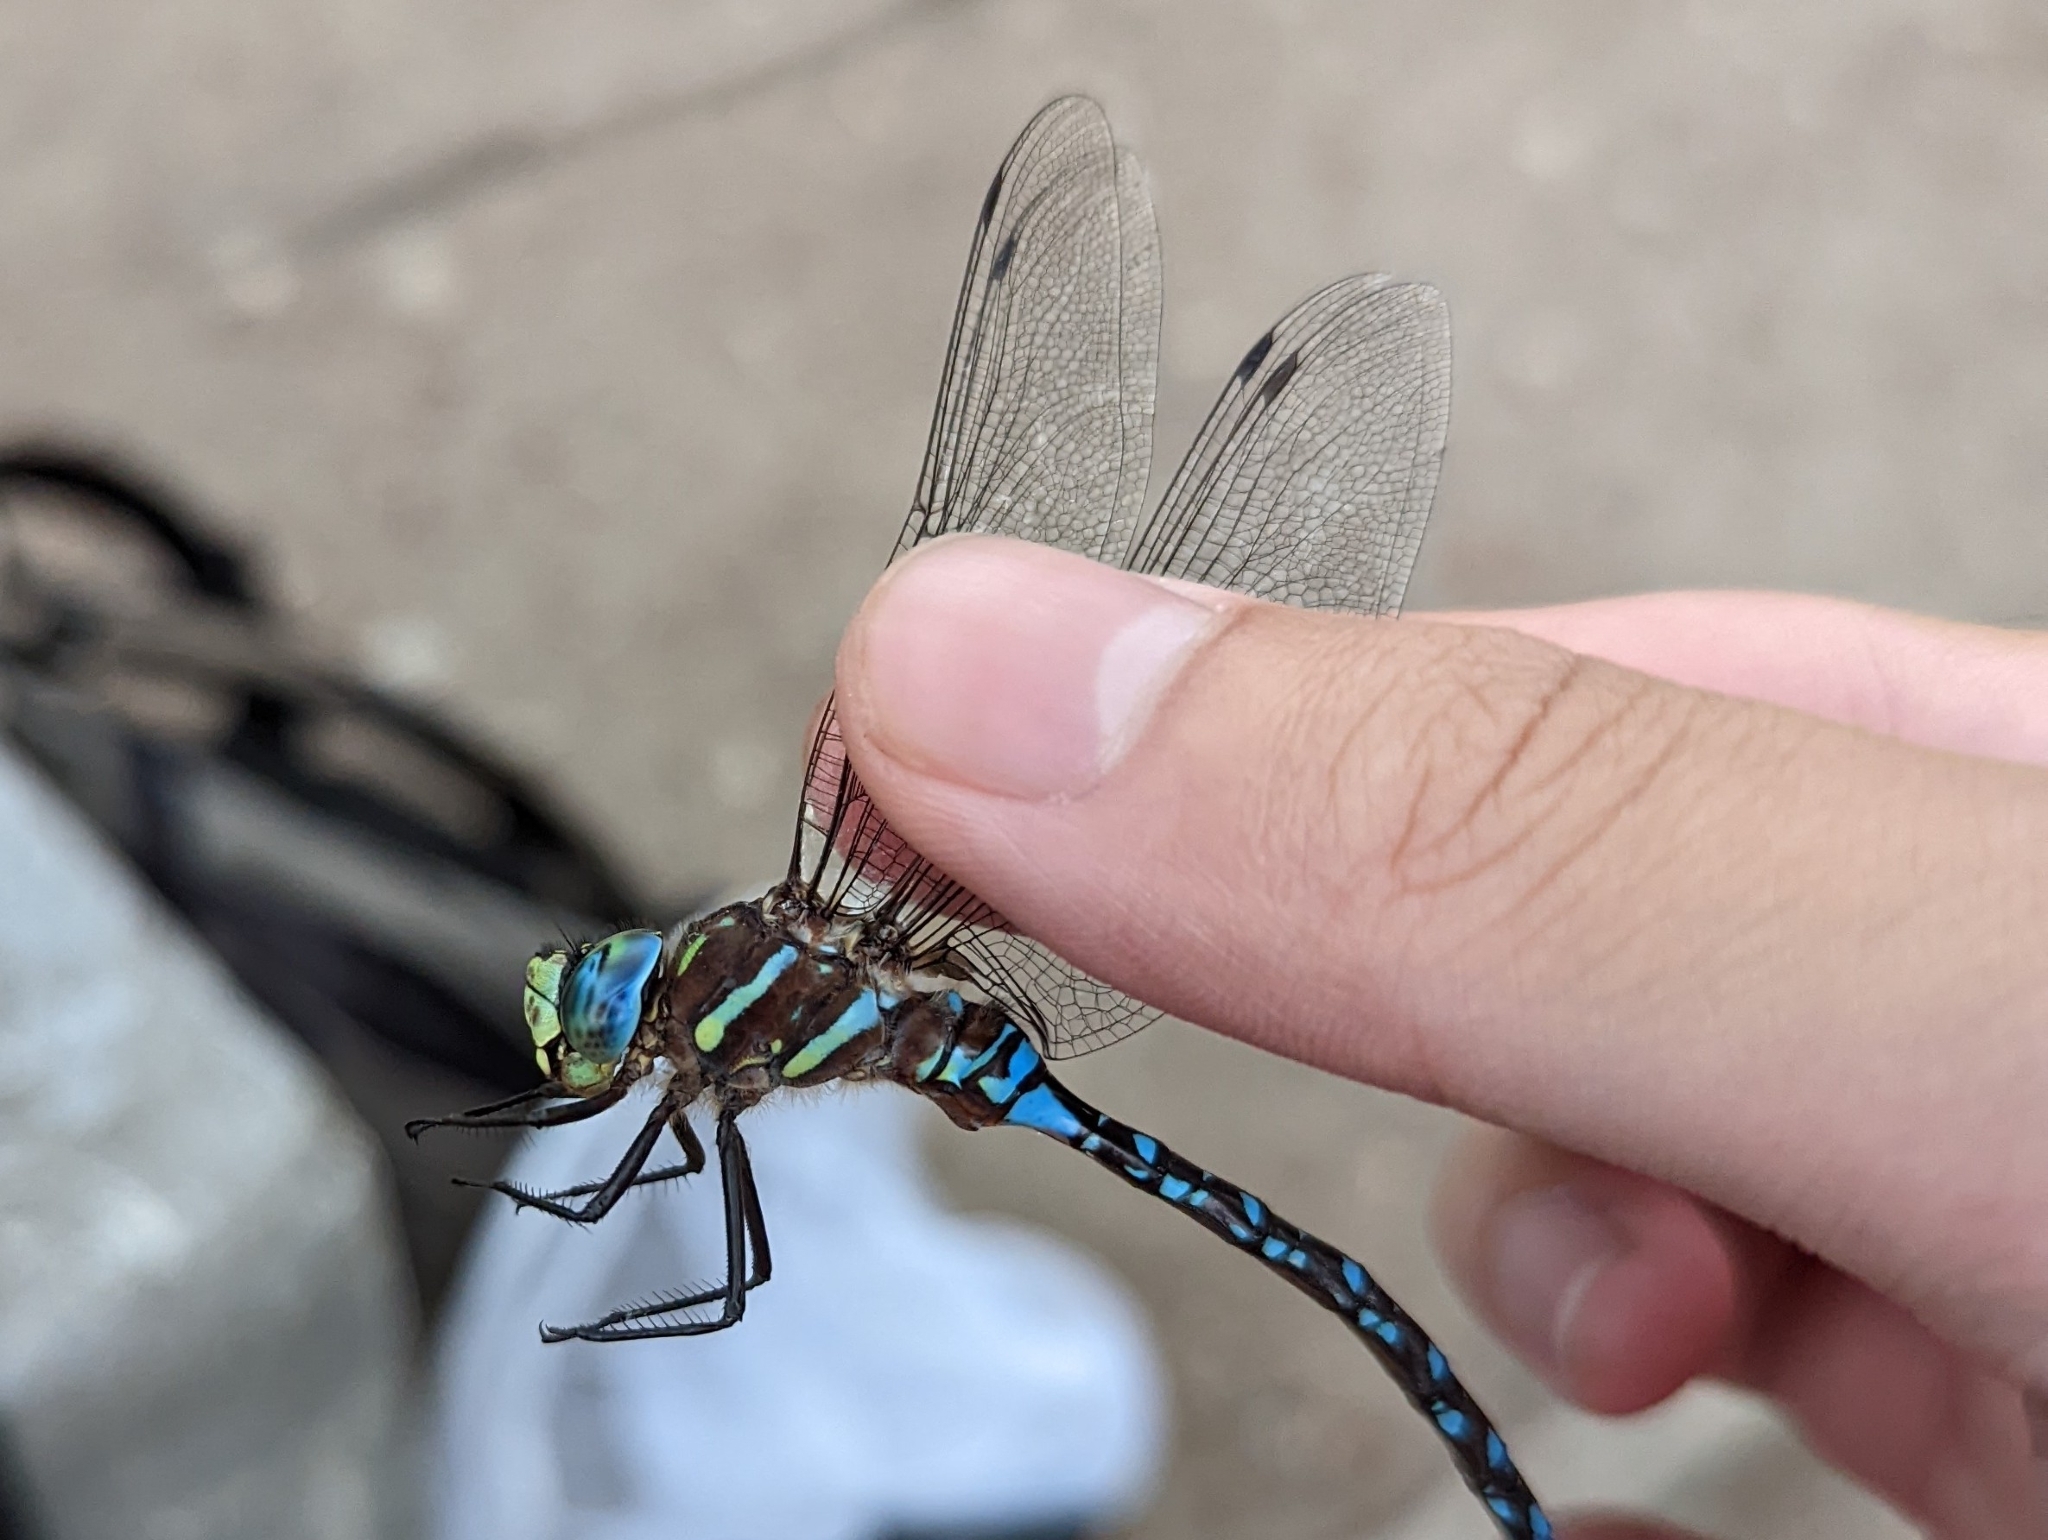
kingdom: Animalia
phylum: Arthropoda
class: Insecta
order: Odonata
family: Aeshnidae
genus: Aeshna
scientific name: Aeshna palmata
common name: Paddle-tailed darner
